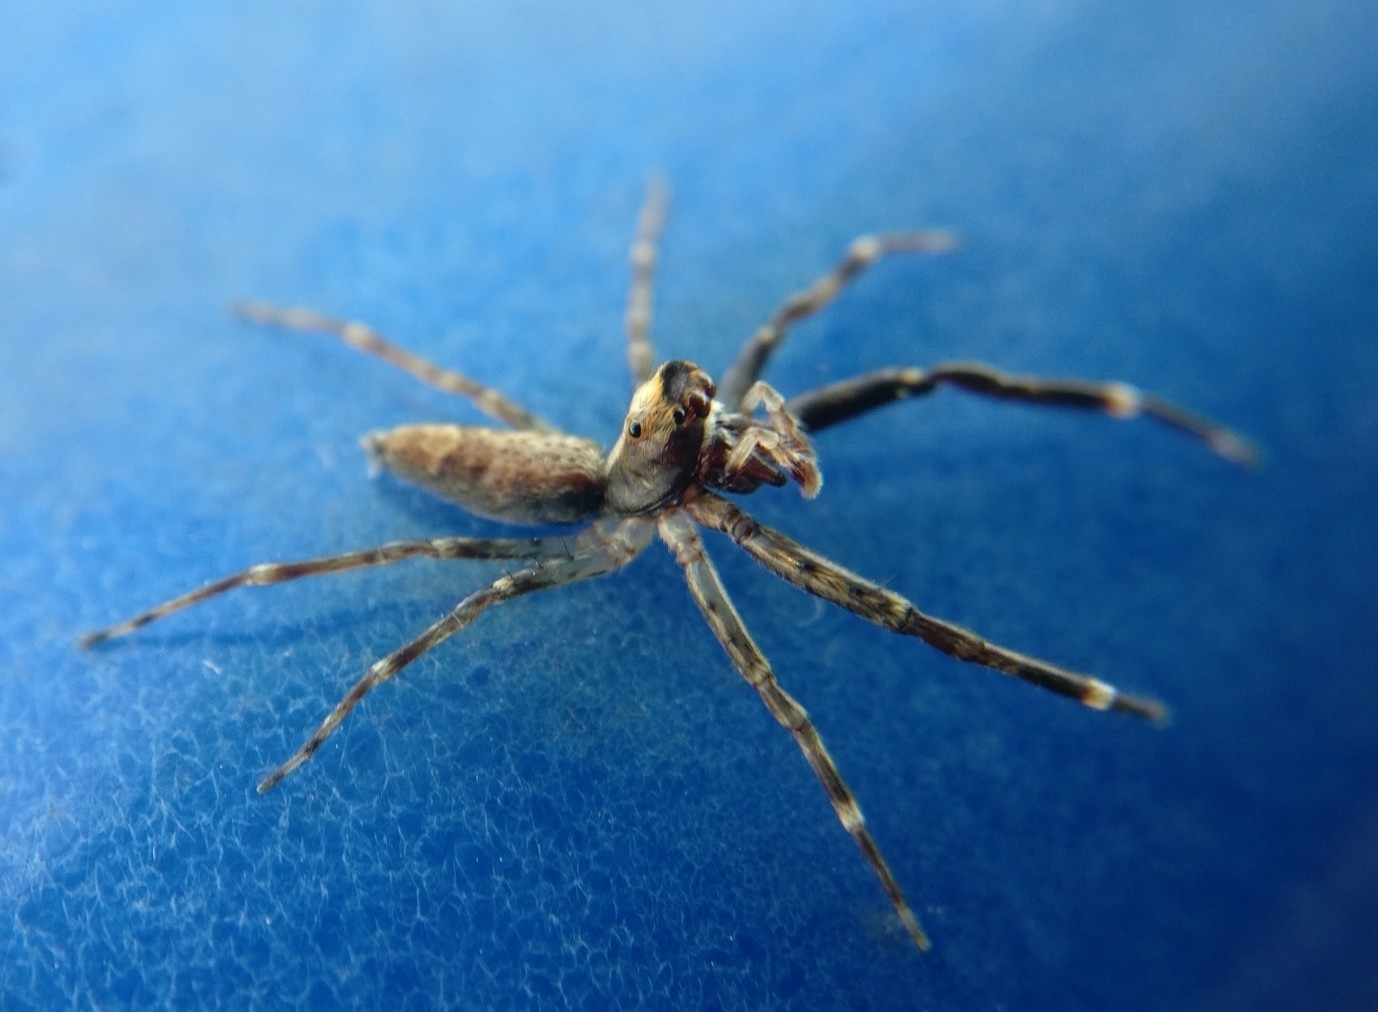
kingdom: Animalia
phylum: Arthropoda
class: Arachnida
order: Araneae
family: Salticidae
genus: Helpis
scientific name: Helpis minitabunda
